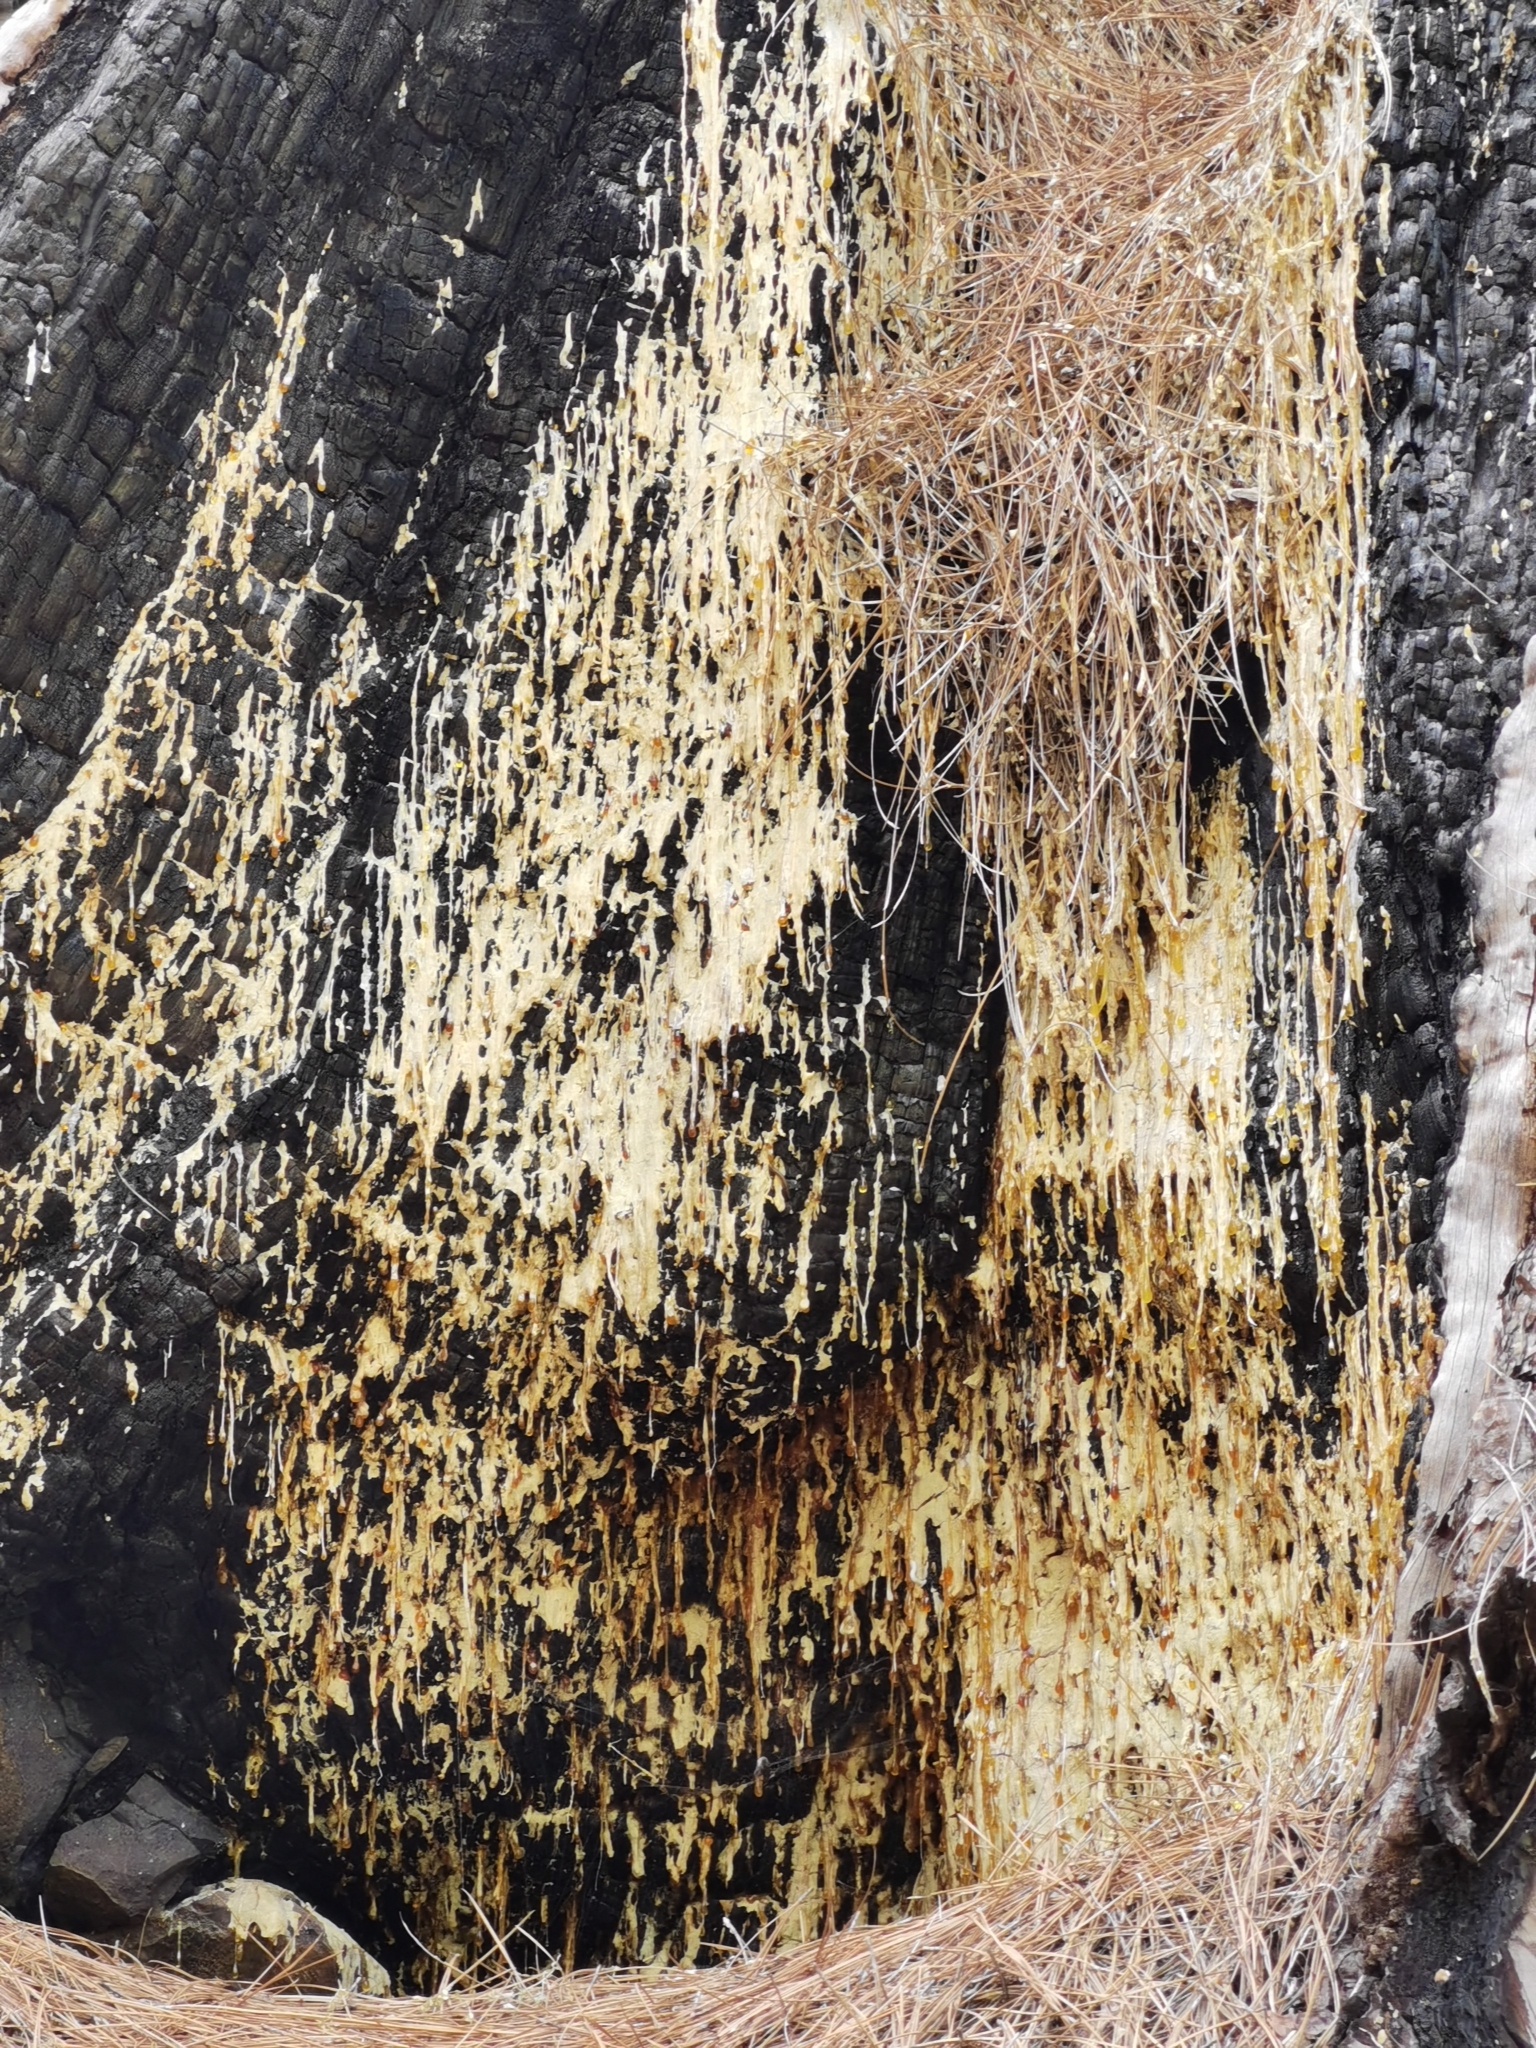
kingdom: Plantae
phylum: Tracheophyta
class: Pinopsida
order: Pinales
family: Pinaceae
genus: Pinus
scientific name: Pinus canariensis
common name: Canary islands pine
